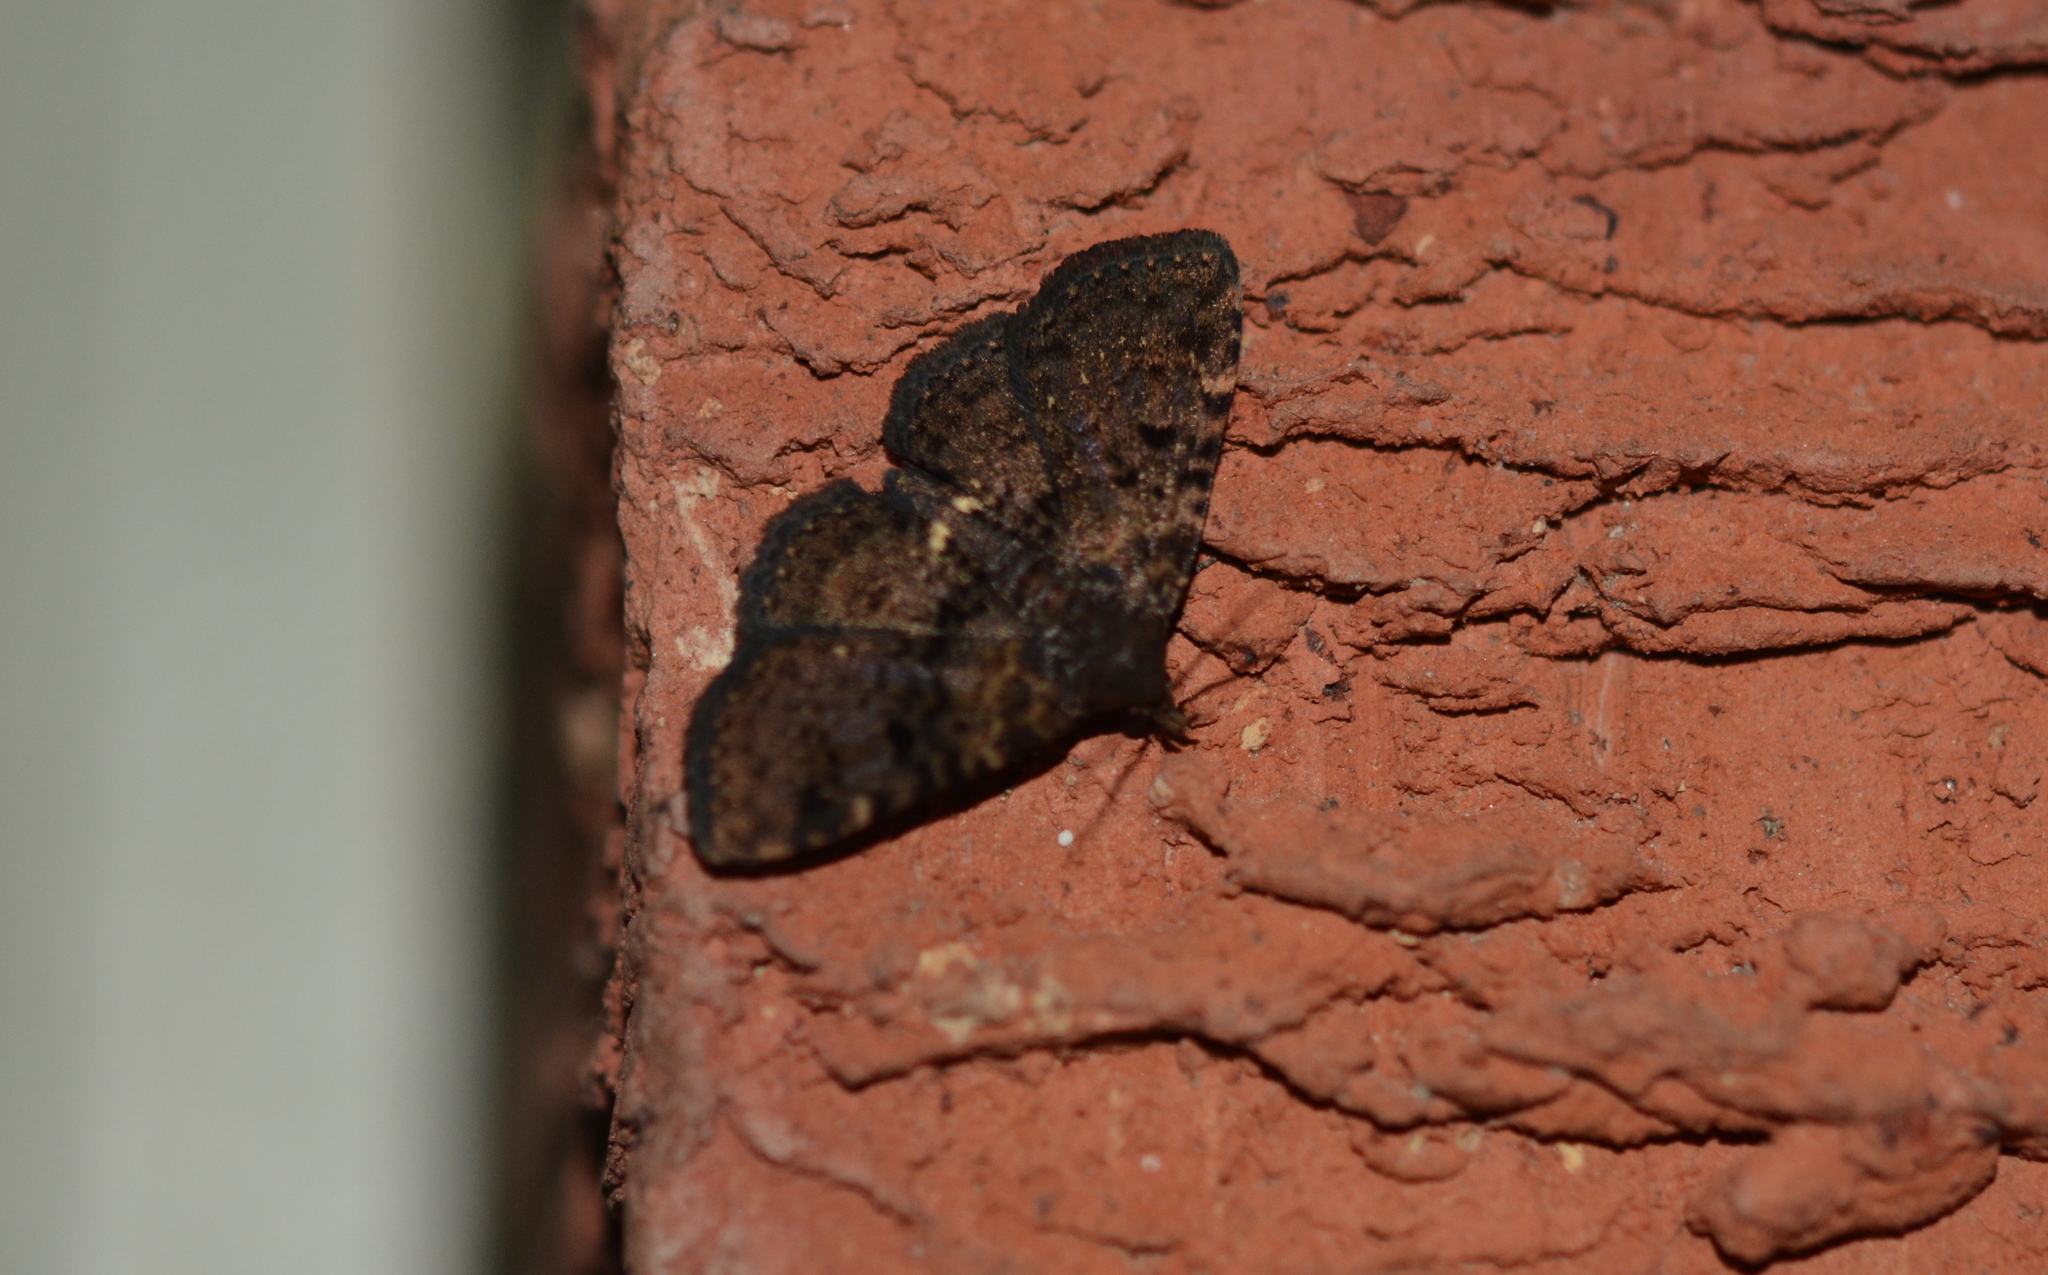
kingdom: Animalia
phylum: Arthropoda
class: Insecta
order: Lepidoptera
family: Erebidae
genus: Metalectra
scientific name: Metalectra quadrisignata
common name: Four-spotted fungus moth
